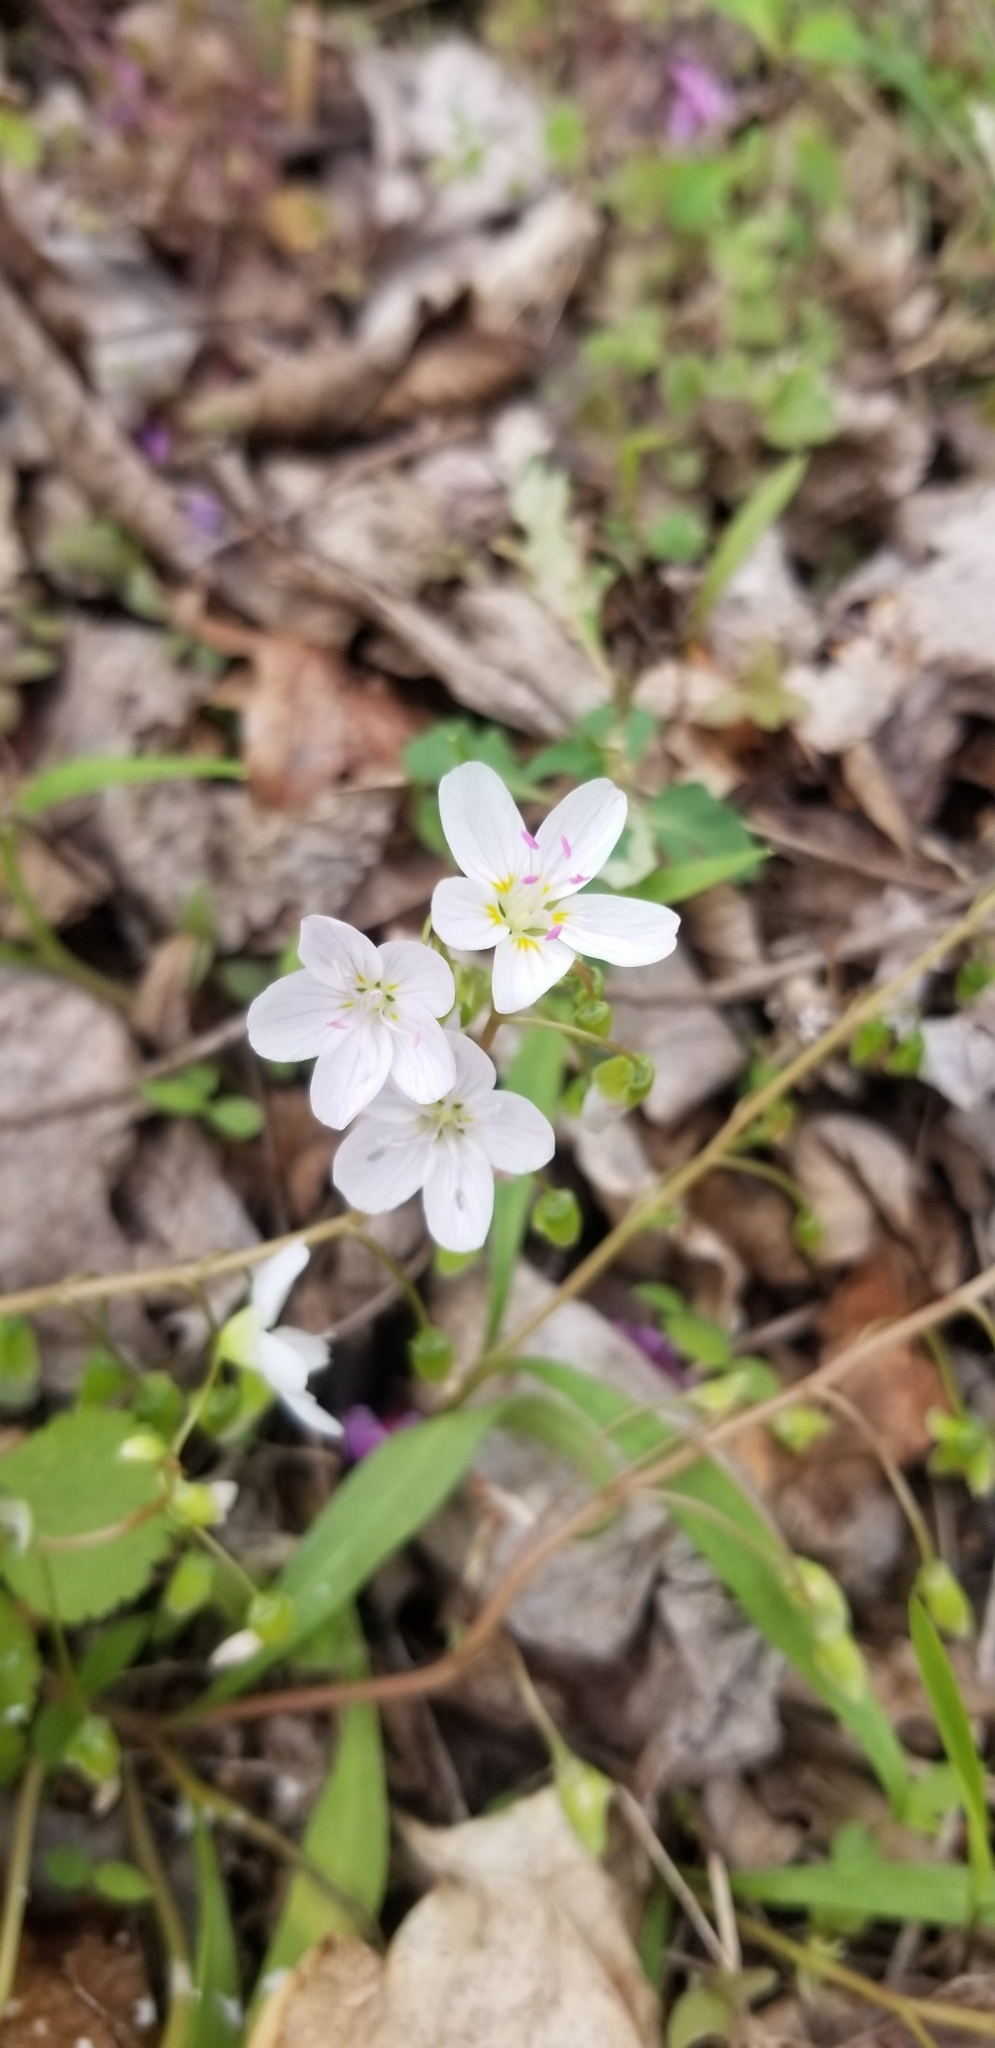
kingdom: Plantae
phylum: Tracheophyta
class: Magnoliopsida
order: Caryophyllales
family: Montiaceae
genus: Claytonia
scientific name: Claytonia virginica
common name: Virginia springbeauty
